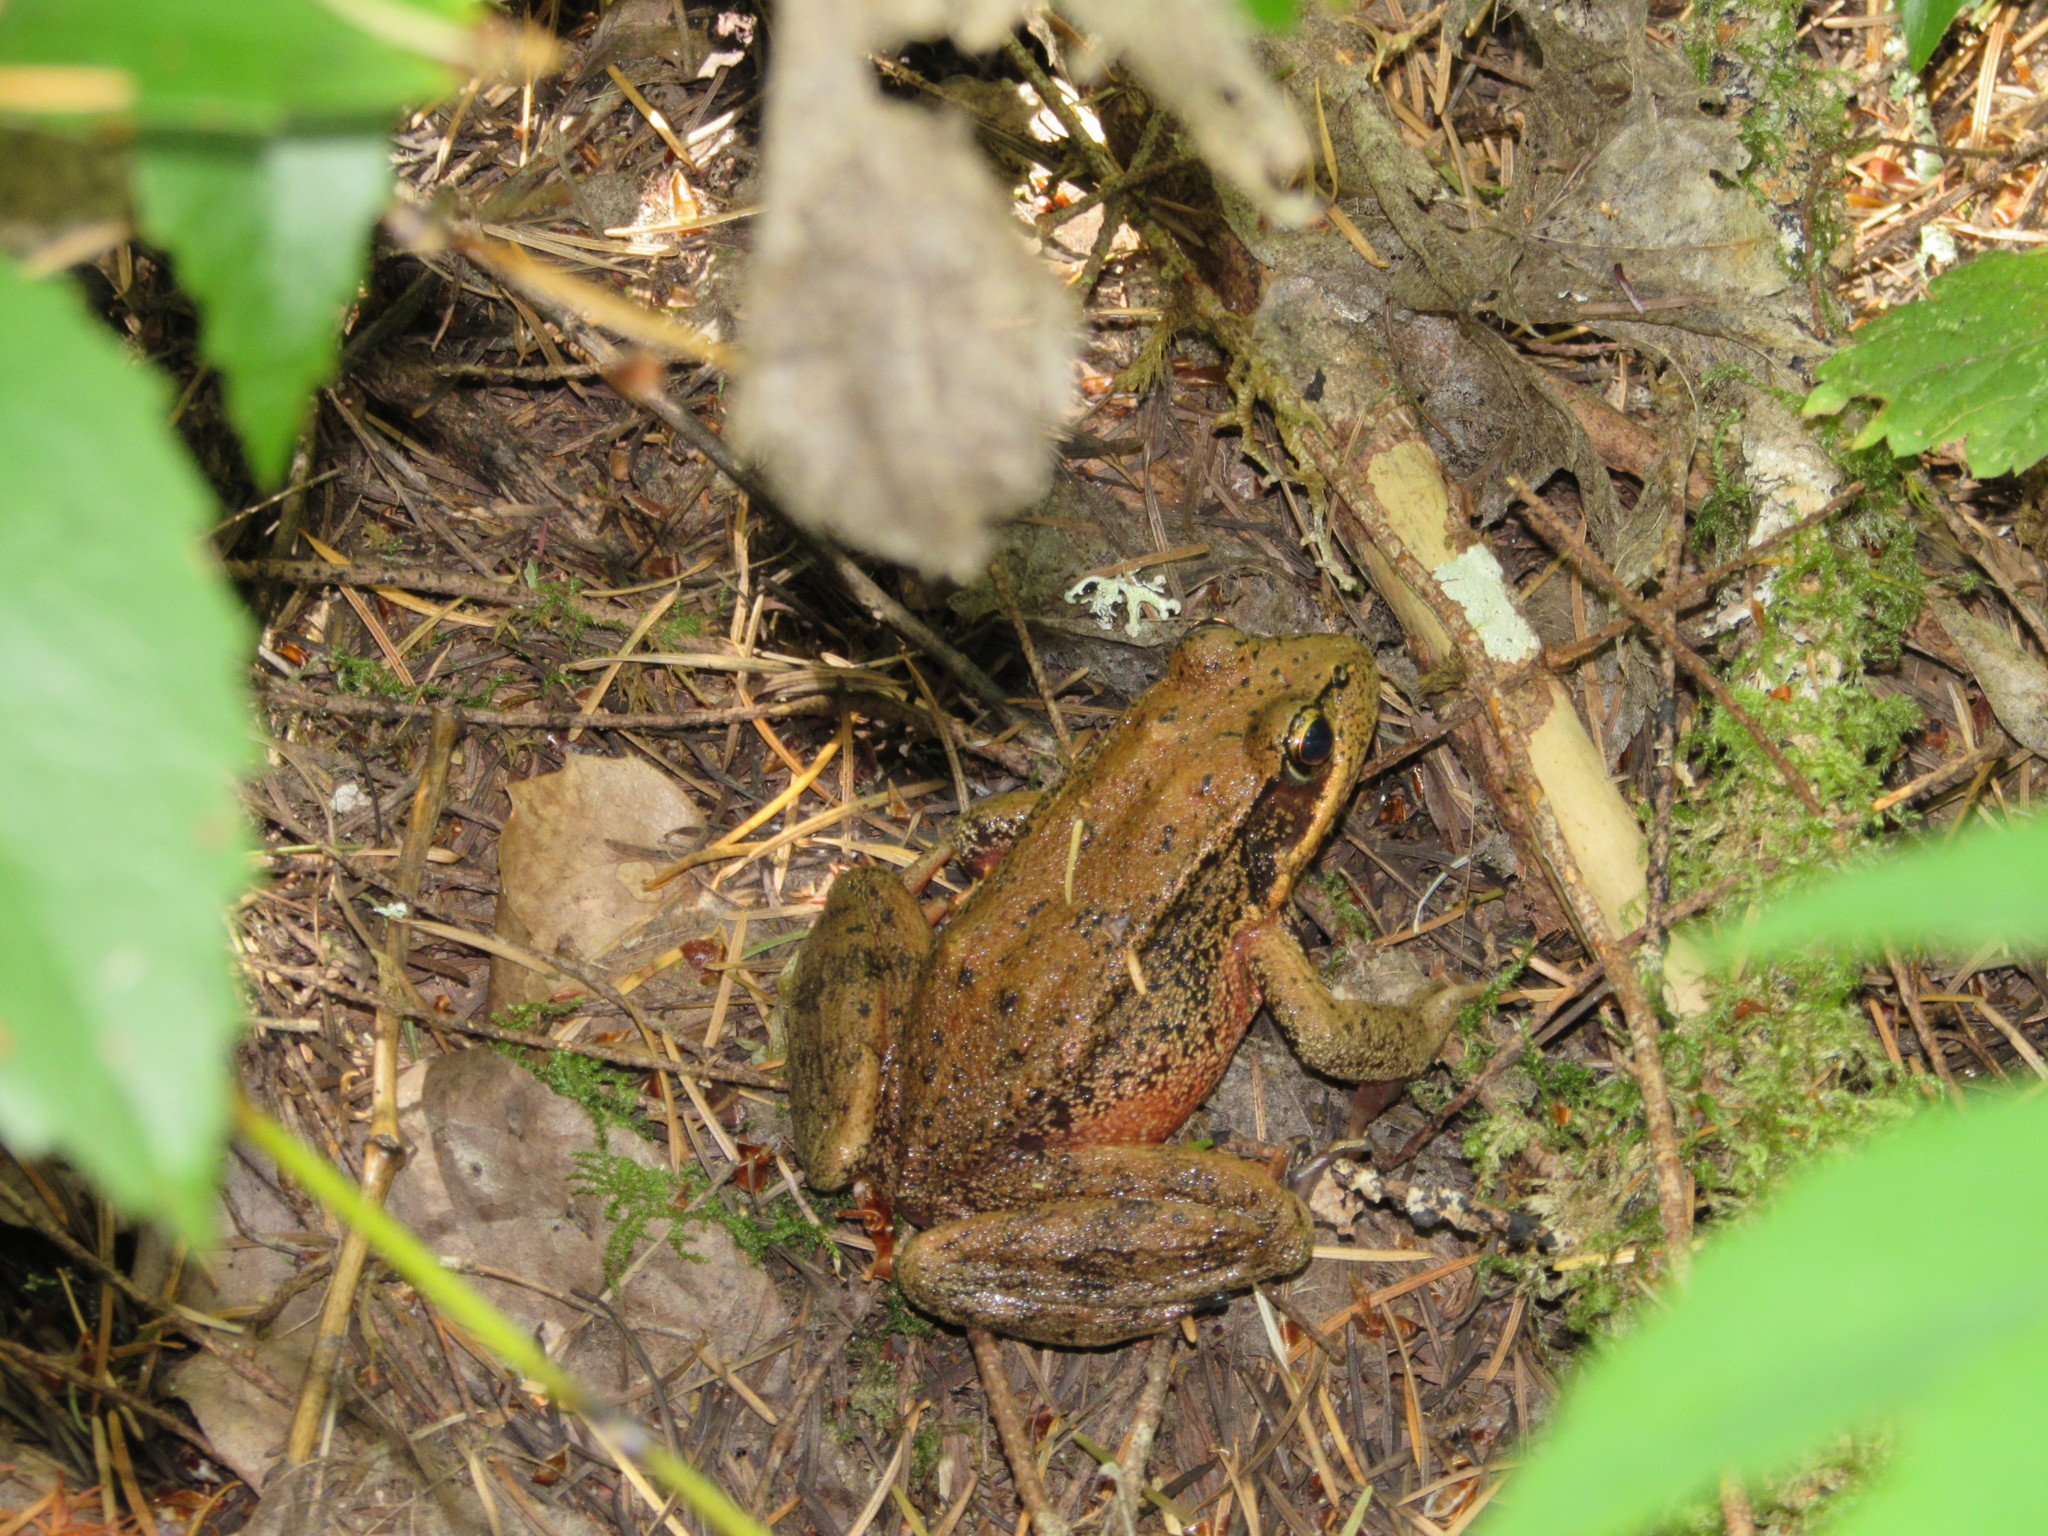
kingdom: Animalia
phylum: Chordata
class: Amphibia
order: Anura
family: Ranidae
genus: Rana
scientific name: Rana aurora
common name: Red-legged frog
